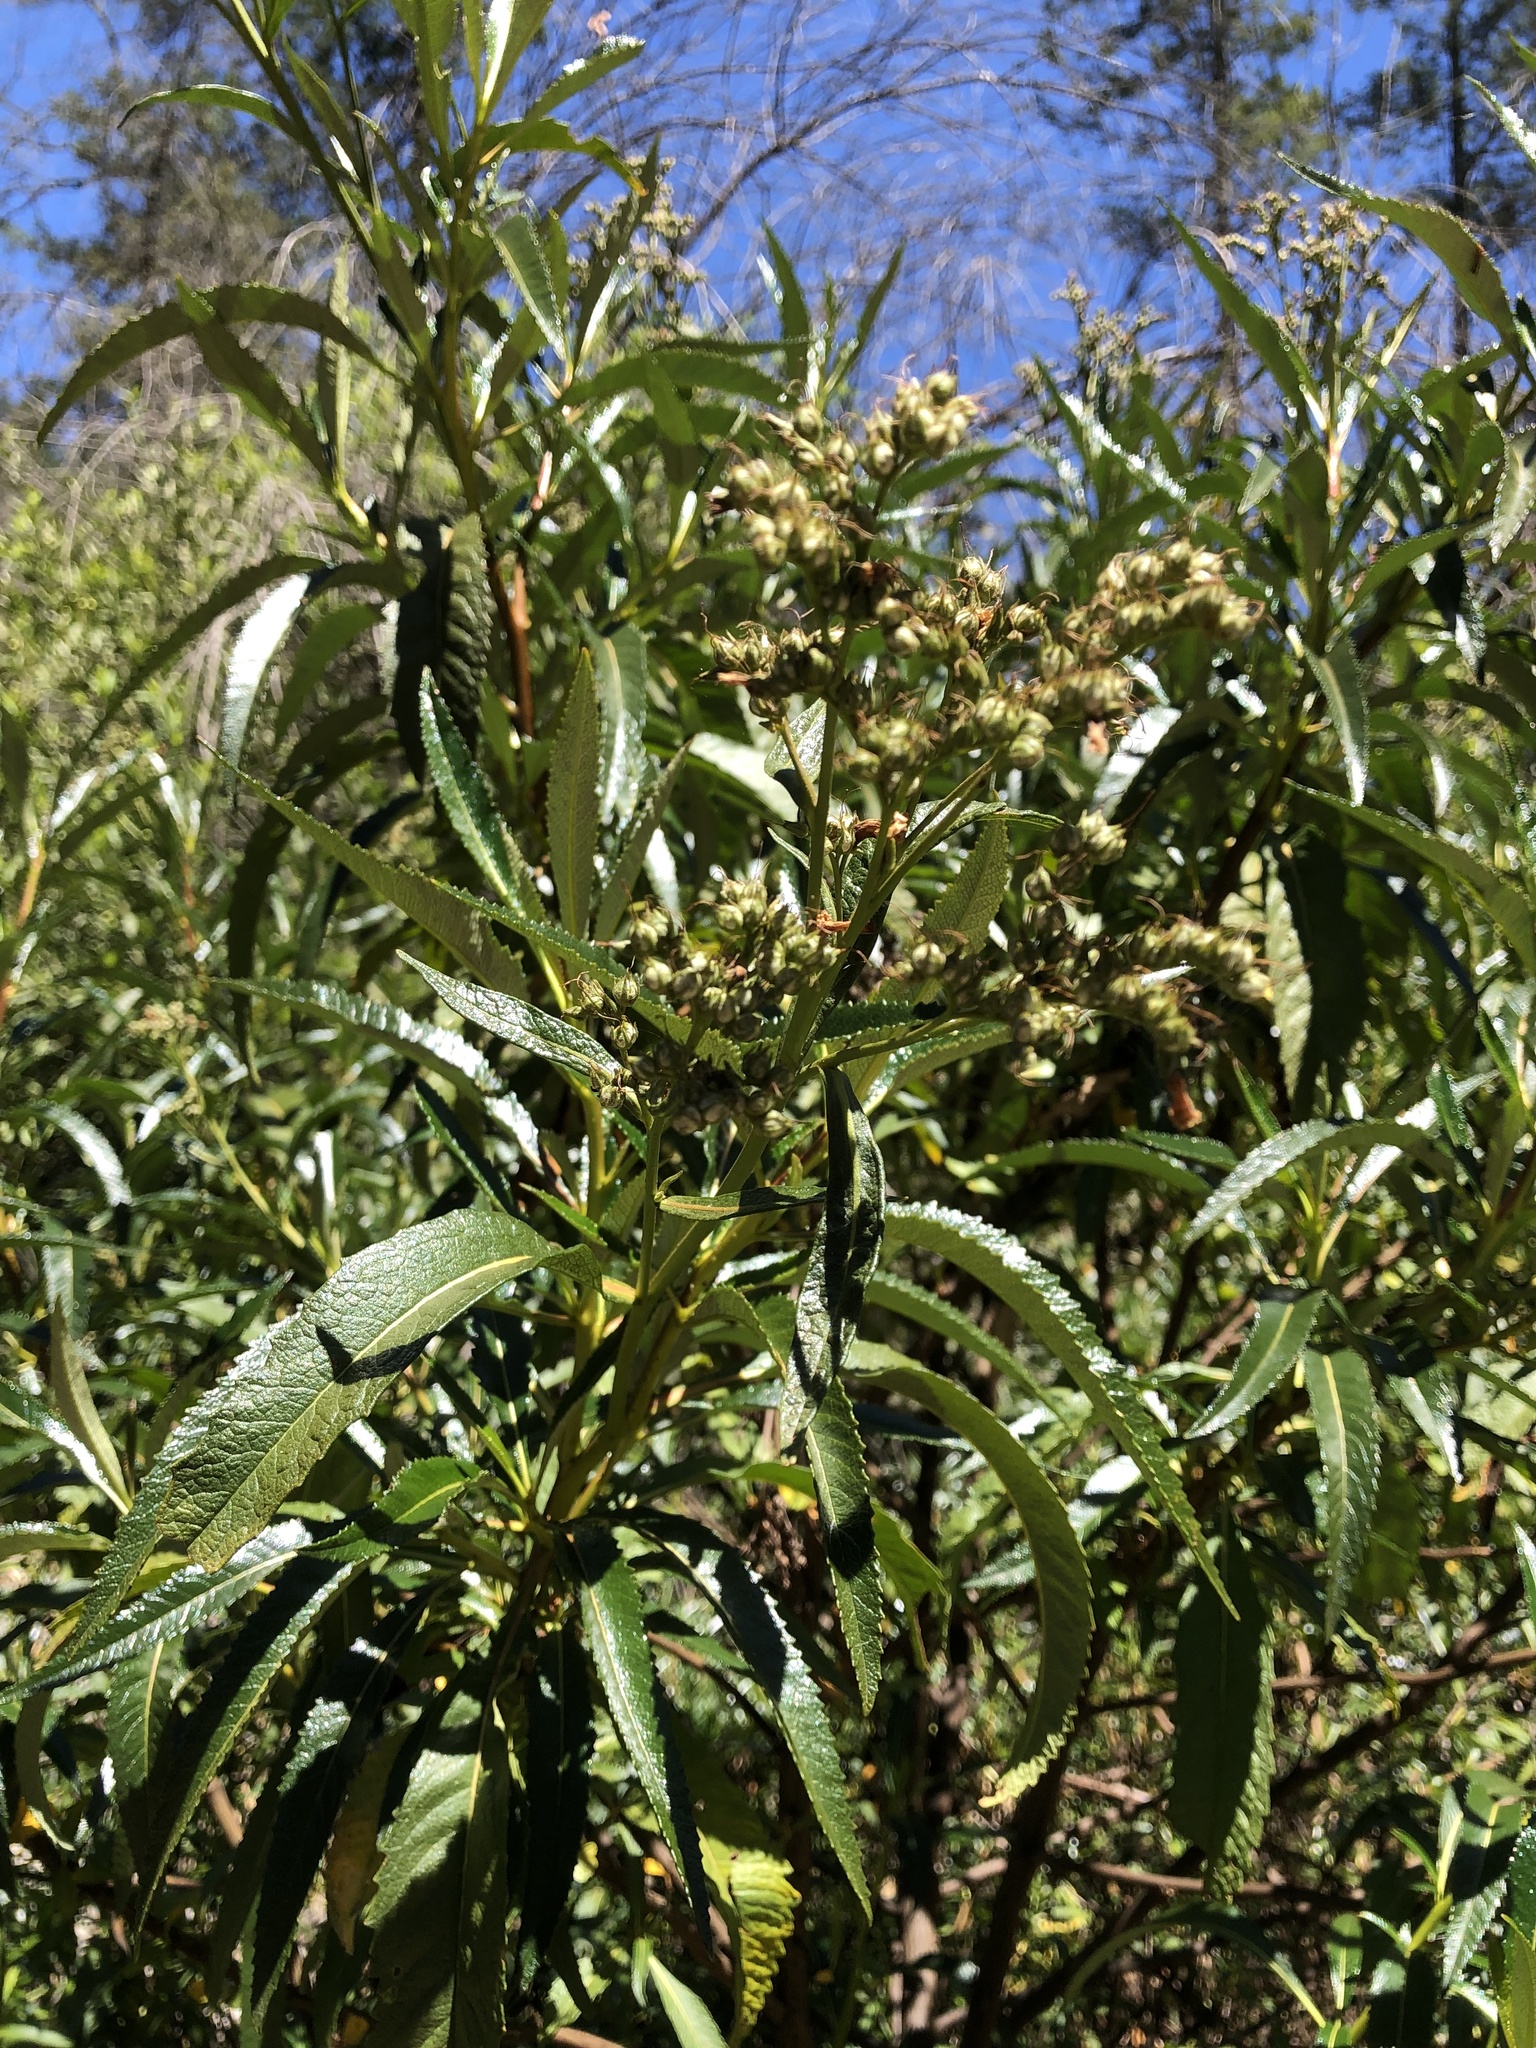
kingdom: Plantae
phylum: Tracheophyta
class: Magnoliopsida
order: Boraginales
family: Namaceae
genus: Eriodictyon
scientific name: Eriodictyon californicum
